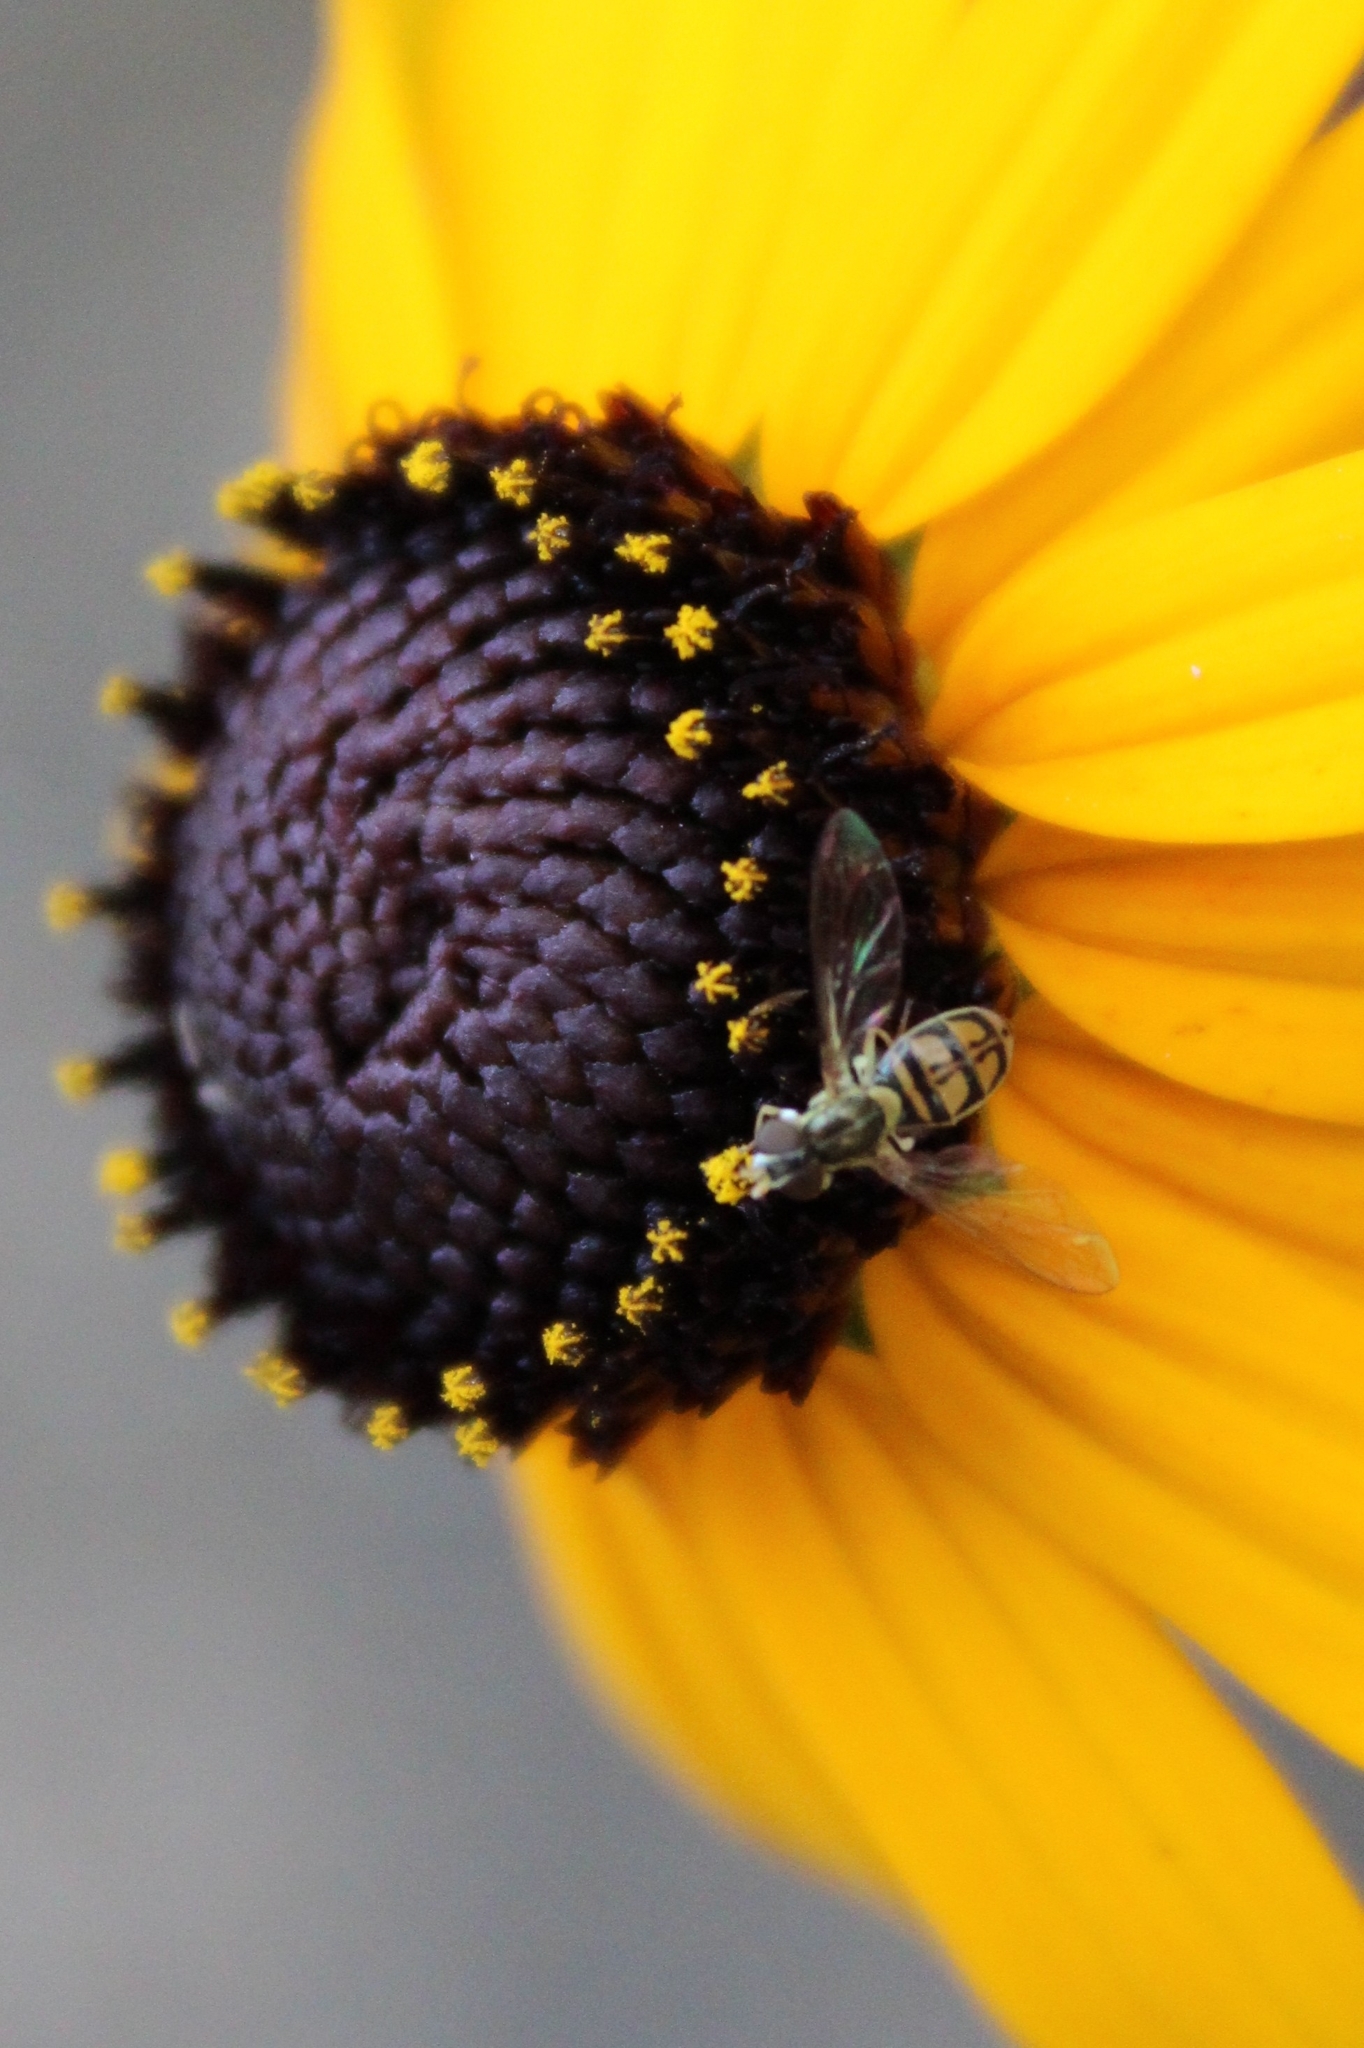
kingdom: Animalia
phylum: Arthropoda
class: Insecta
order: Diptera
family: Syrphidae
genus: Toxomerus
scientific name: Toxomerus marginatus
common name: Syrphid fly
